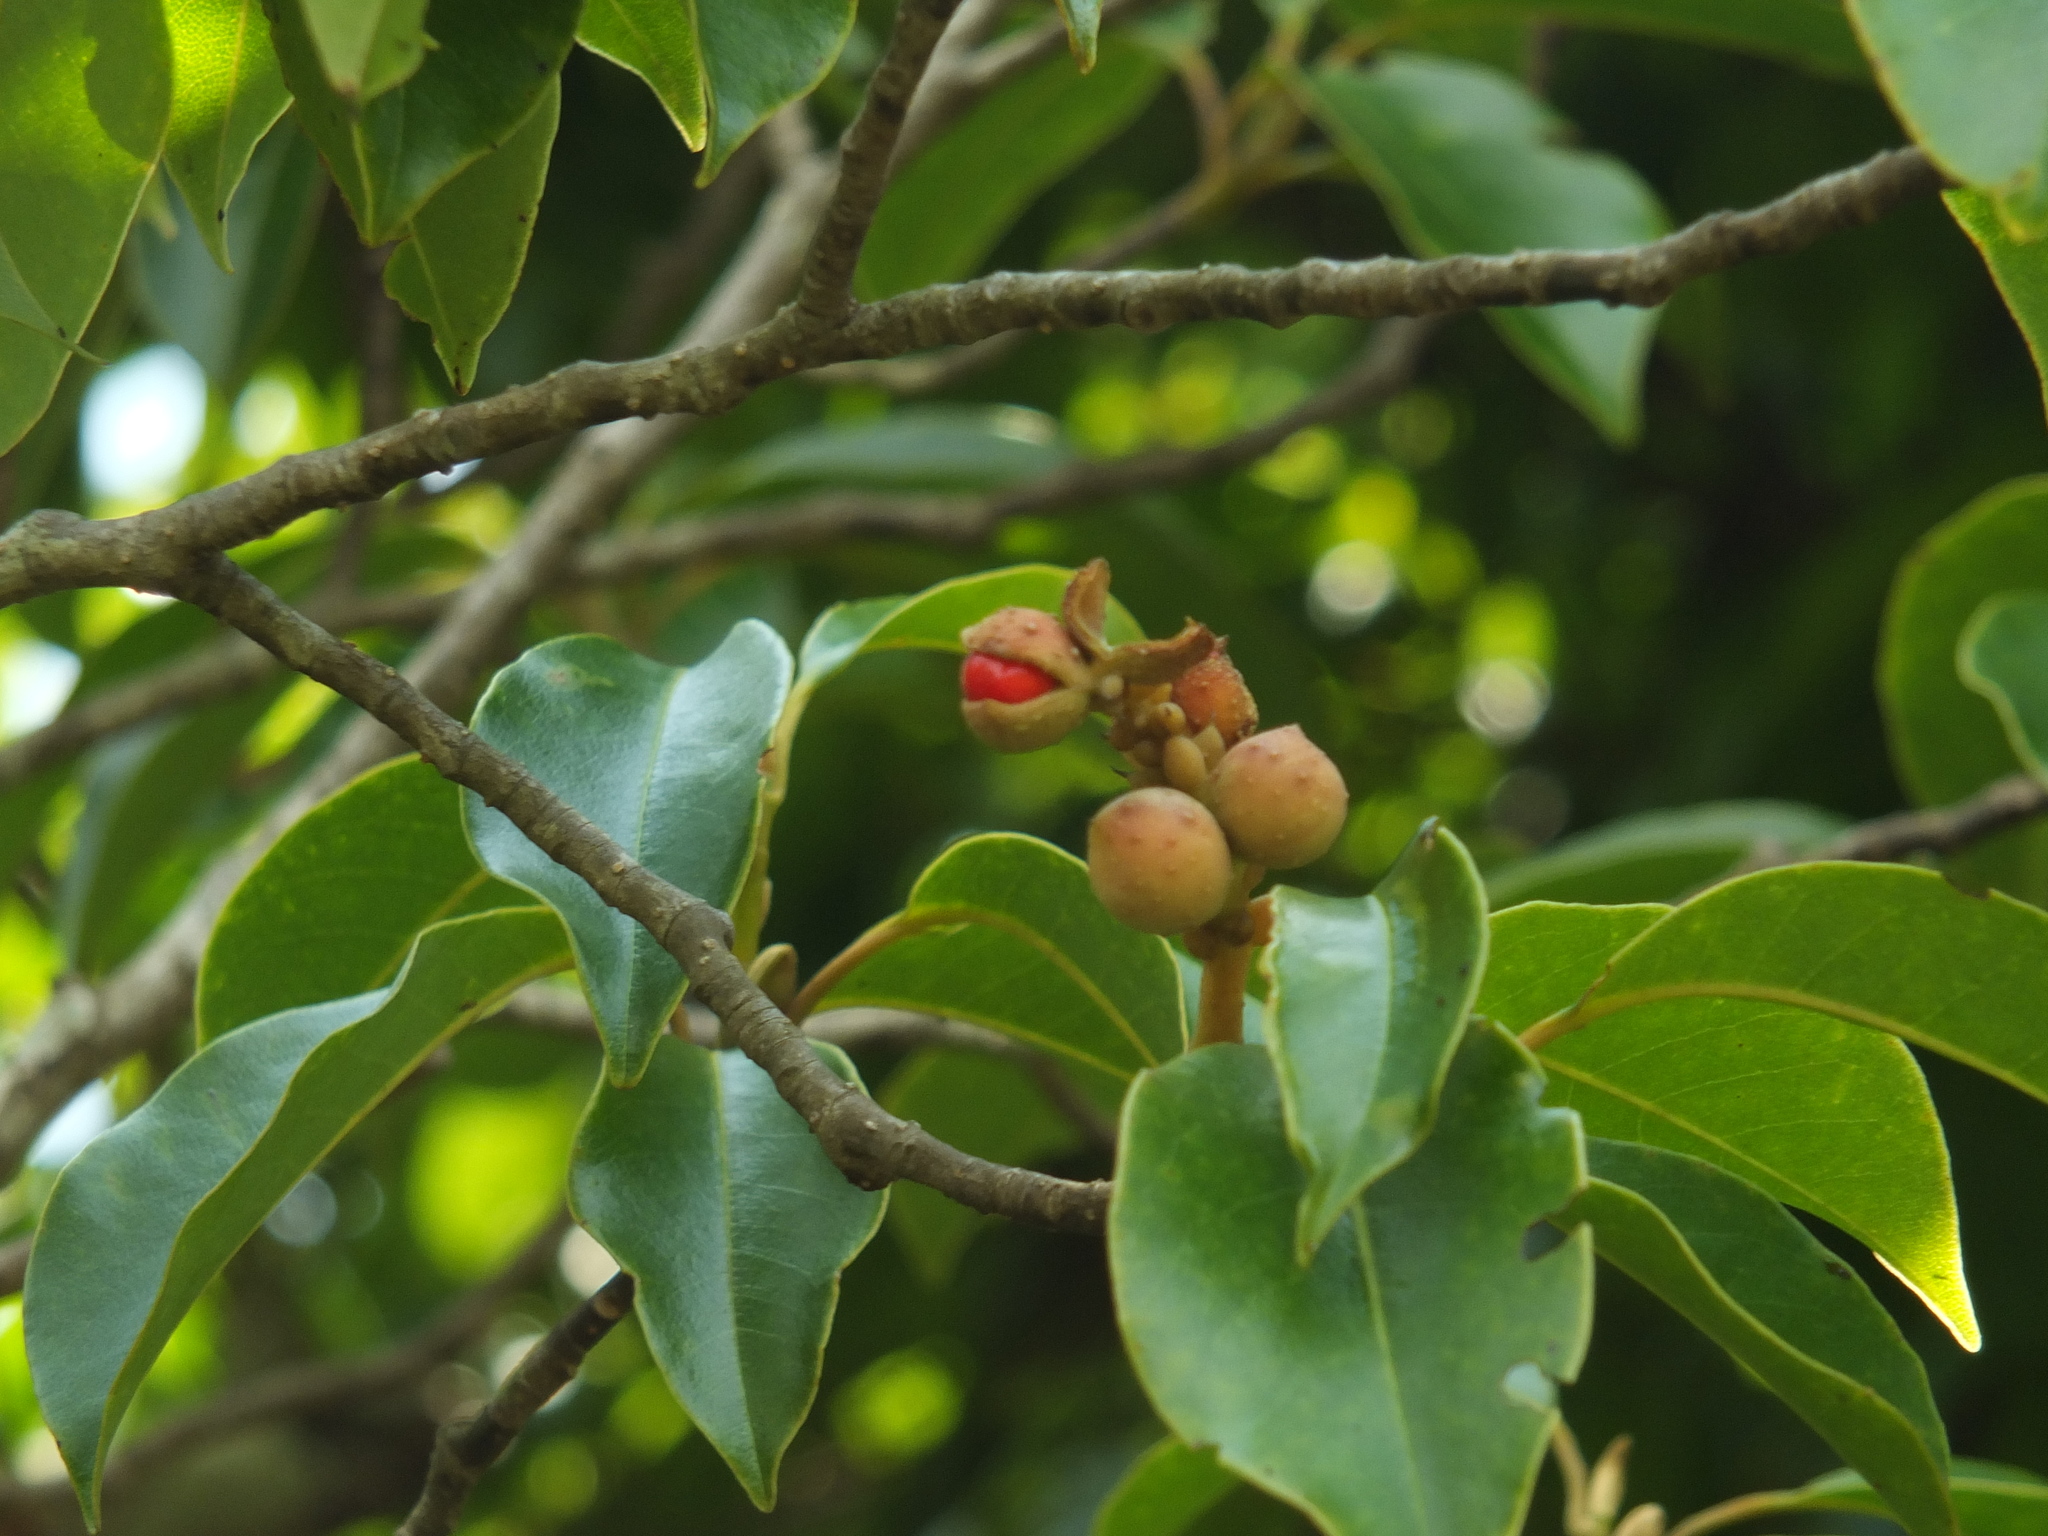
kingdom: Plantae
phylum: Tracheophyta
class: Magnoliopsida
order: Magnoliales
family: Magnoliaceae
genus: Magnolia
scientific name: Magnolia nilagirica
